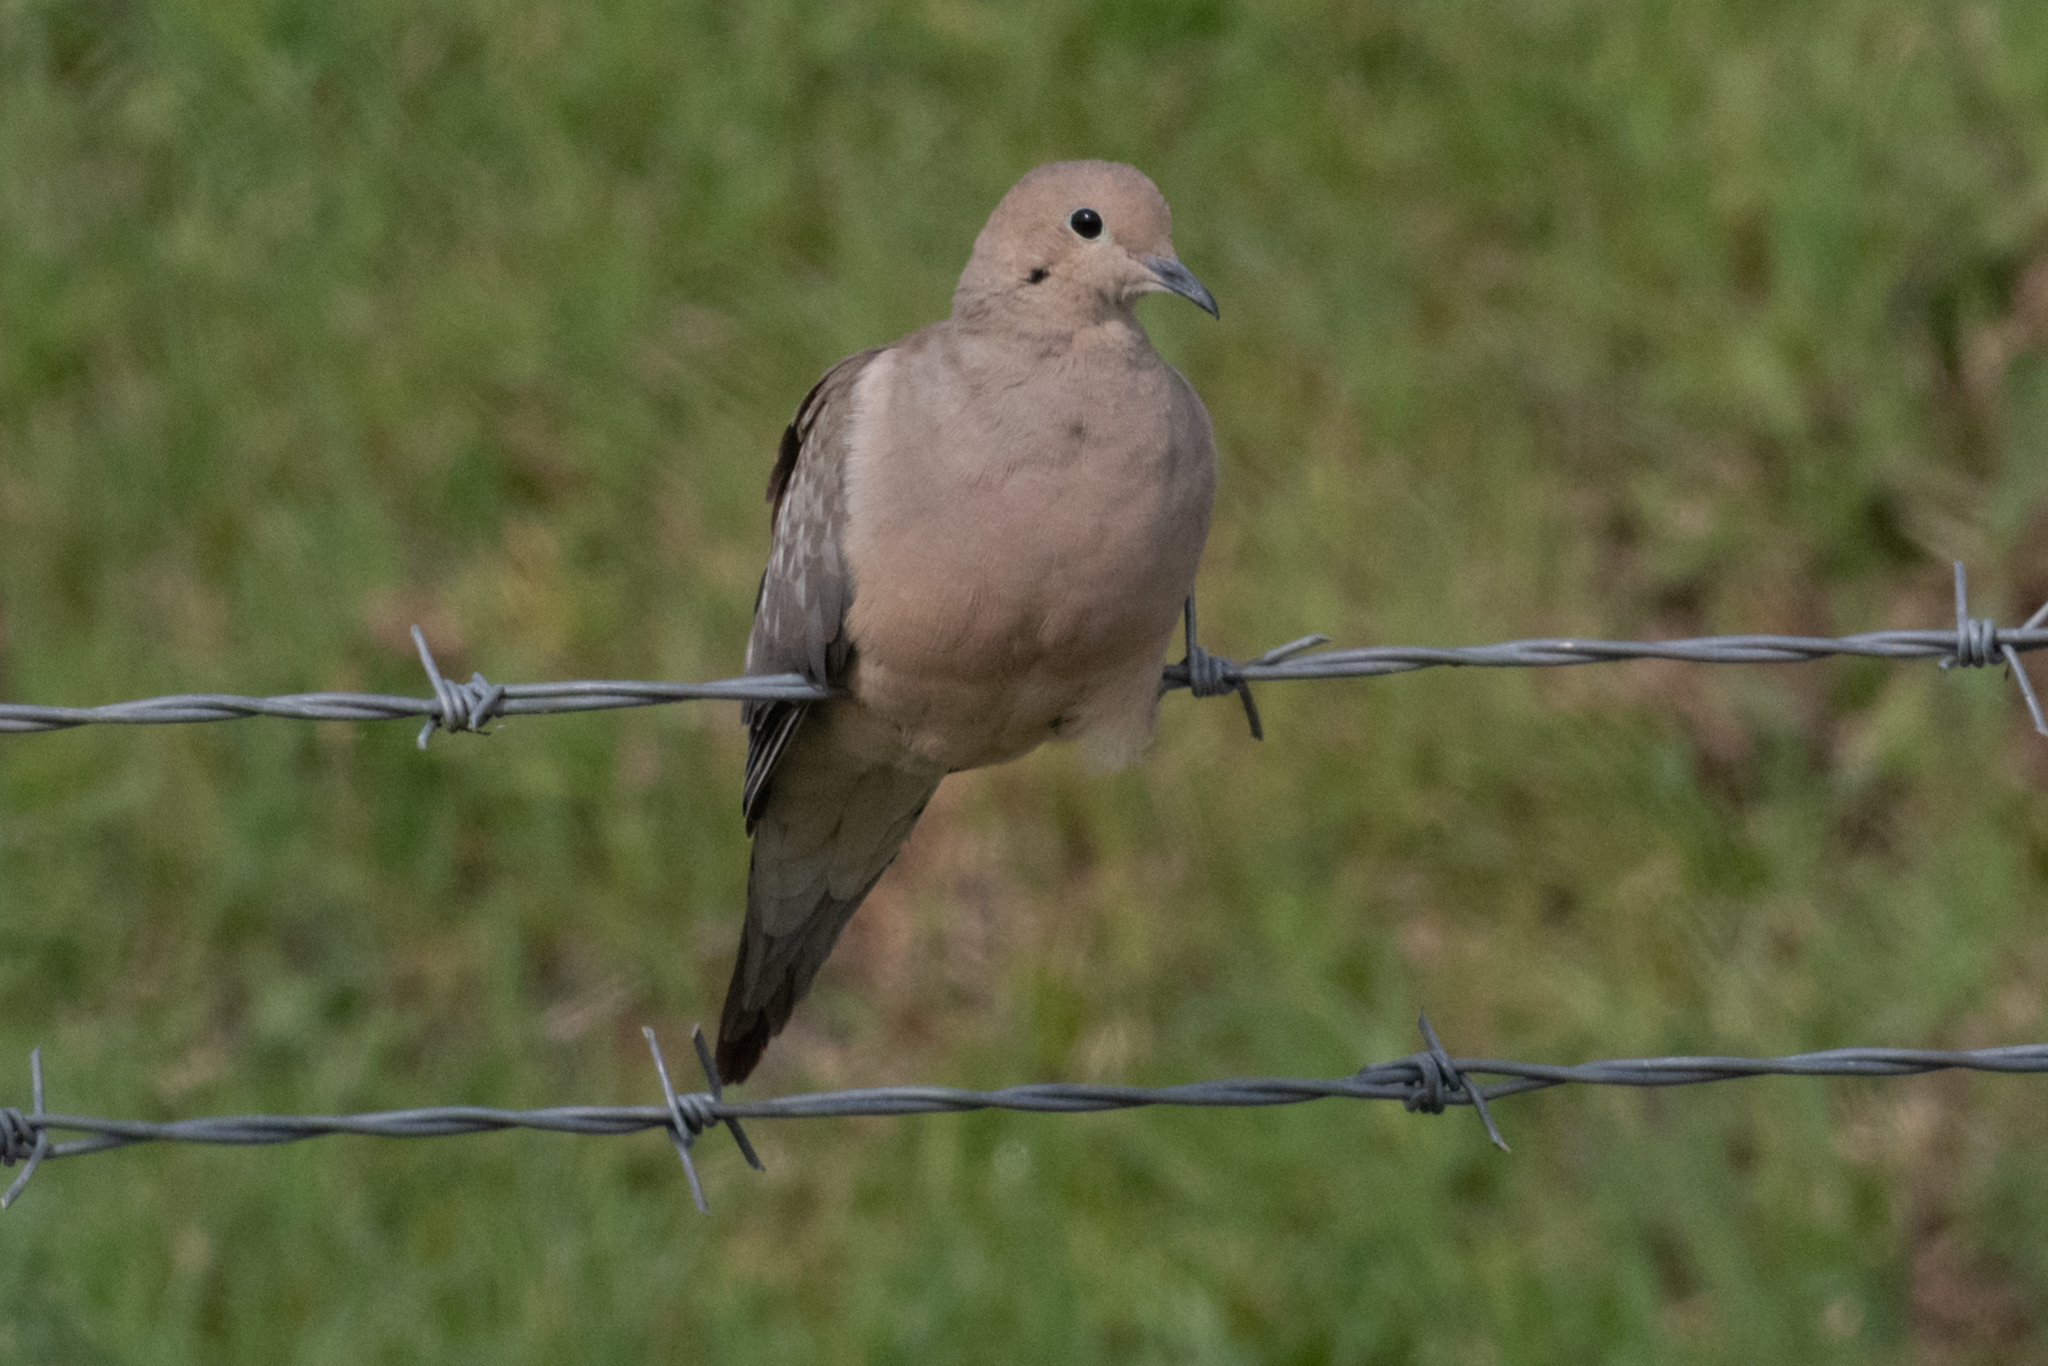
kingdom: Animalia
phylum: Chordata
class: Aves
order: Columbiformes
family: Columbidae
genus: Zenaida
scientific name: Zenaida macroura
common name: Mourning dove
